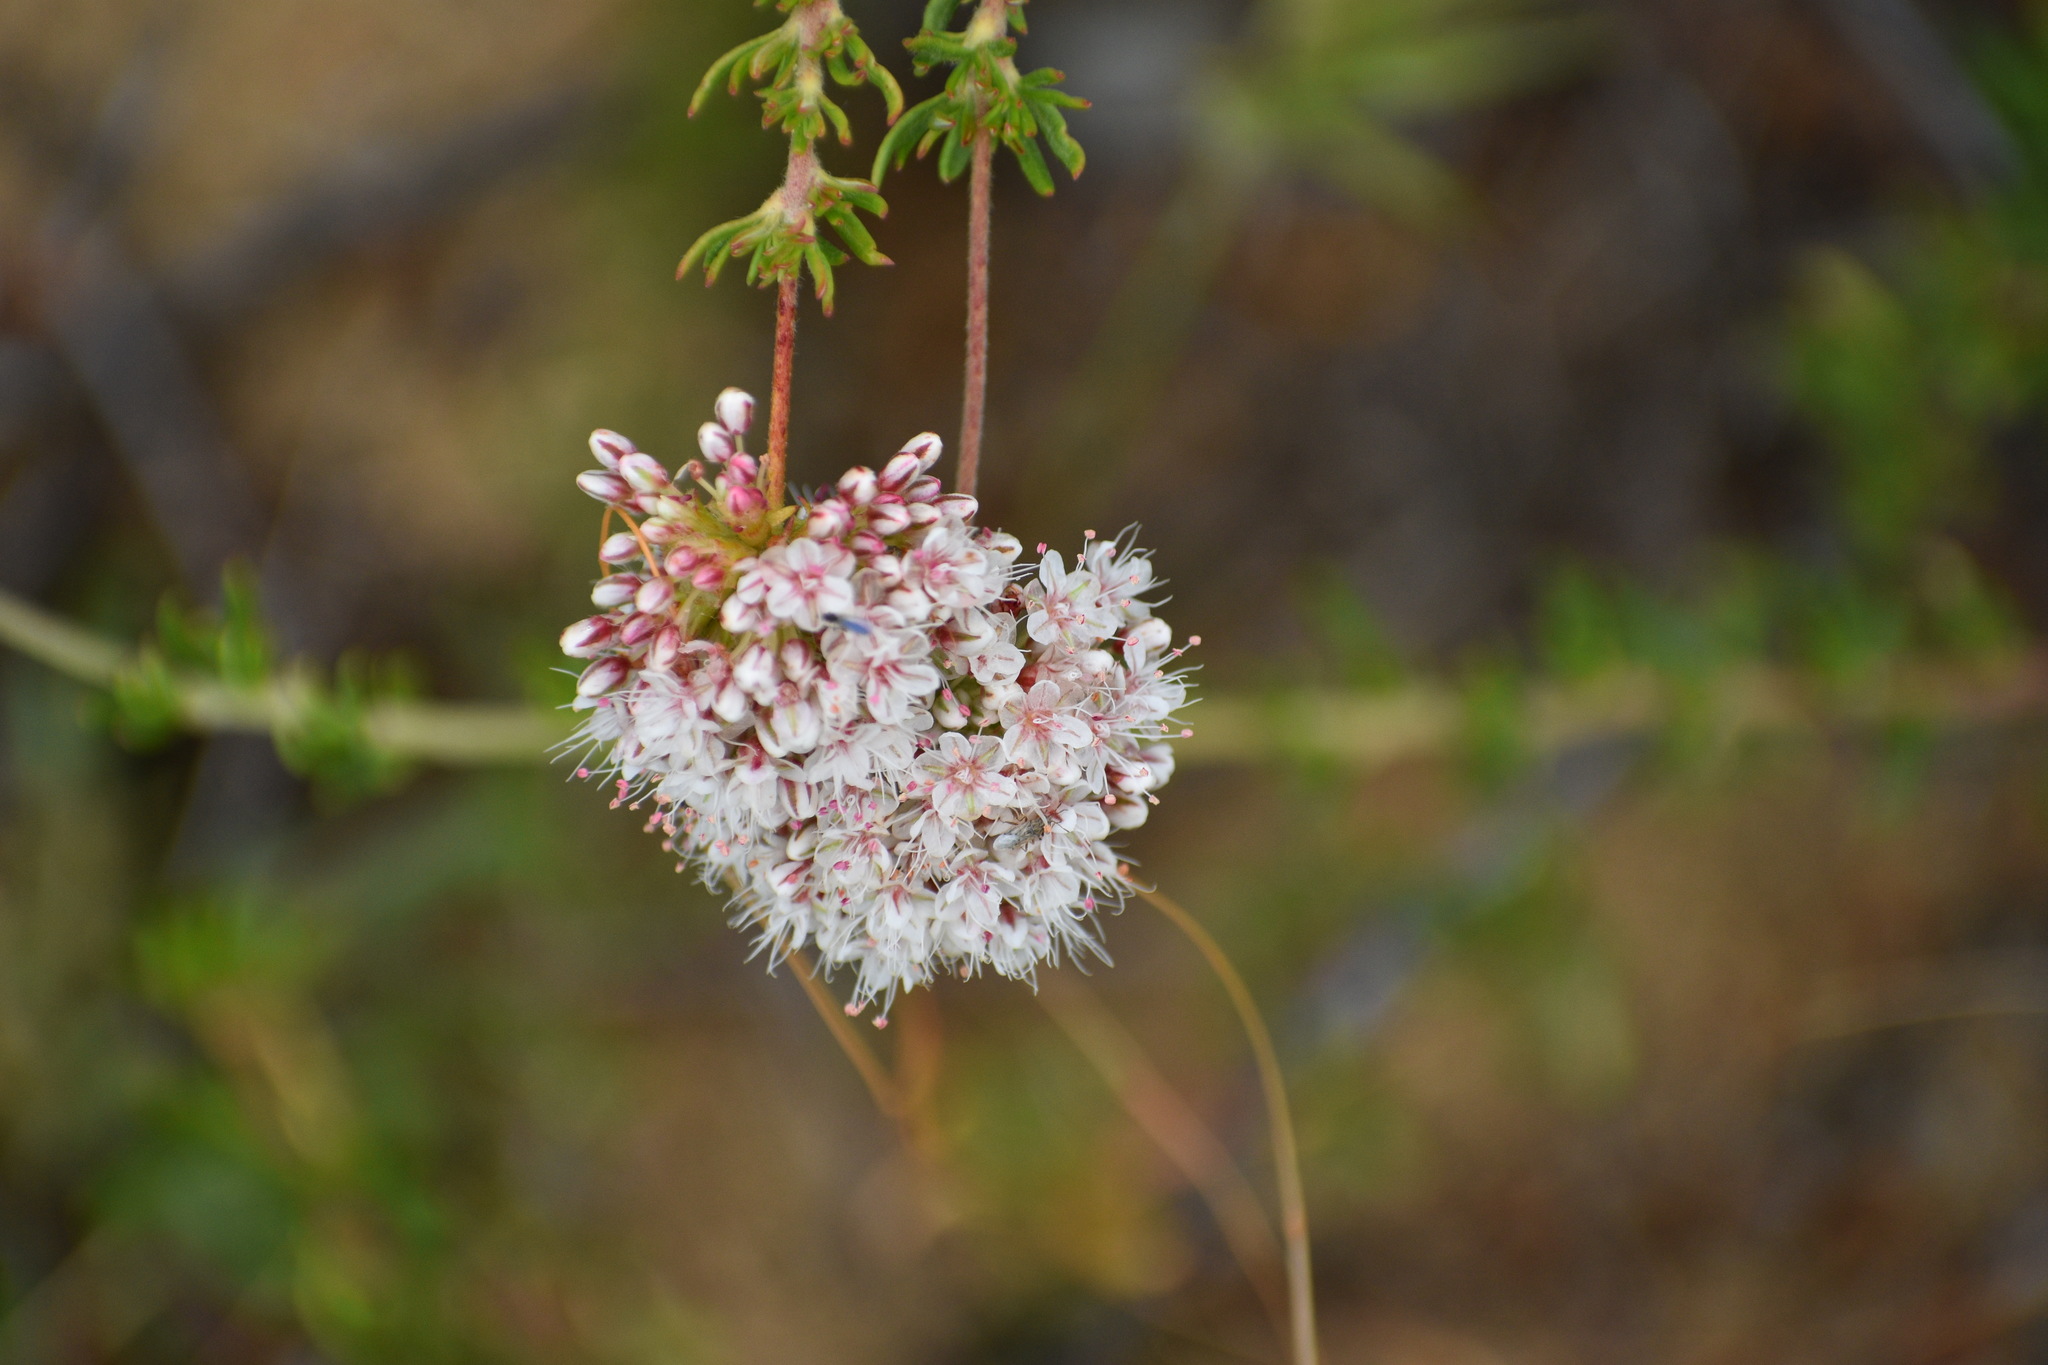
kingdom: Plantae
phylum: Tracheophyta
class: Magnoliopsida
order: Caryophyllales
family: Polygonaceae
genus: Eriogonum
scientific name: Eriogonum fasciculatum
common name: California wild buckwheat
